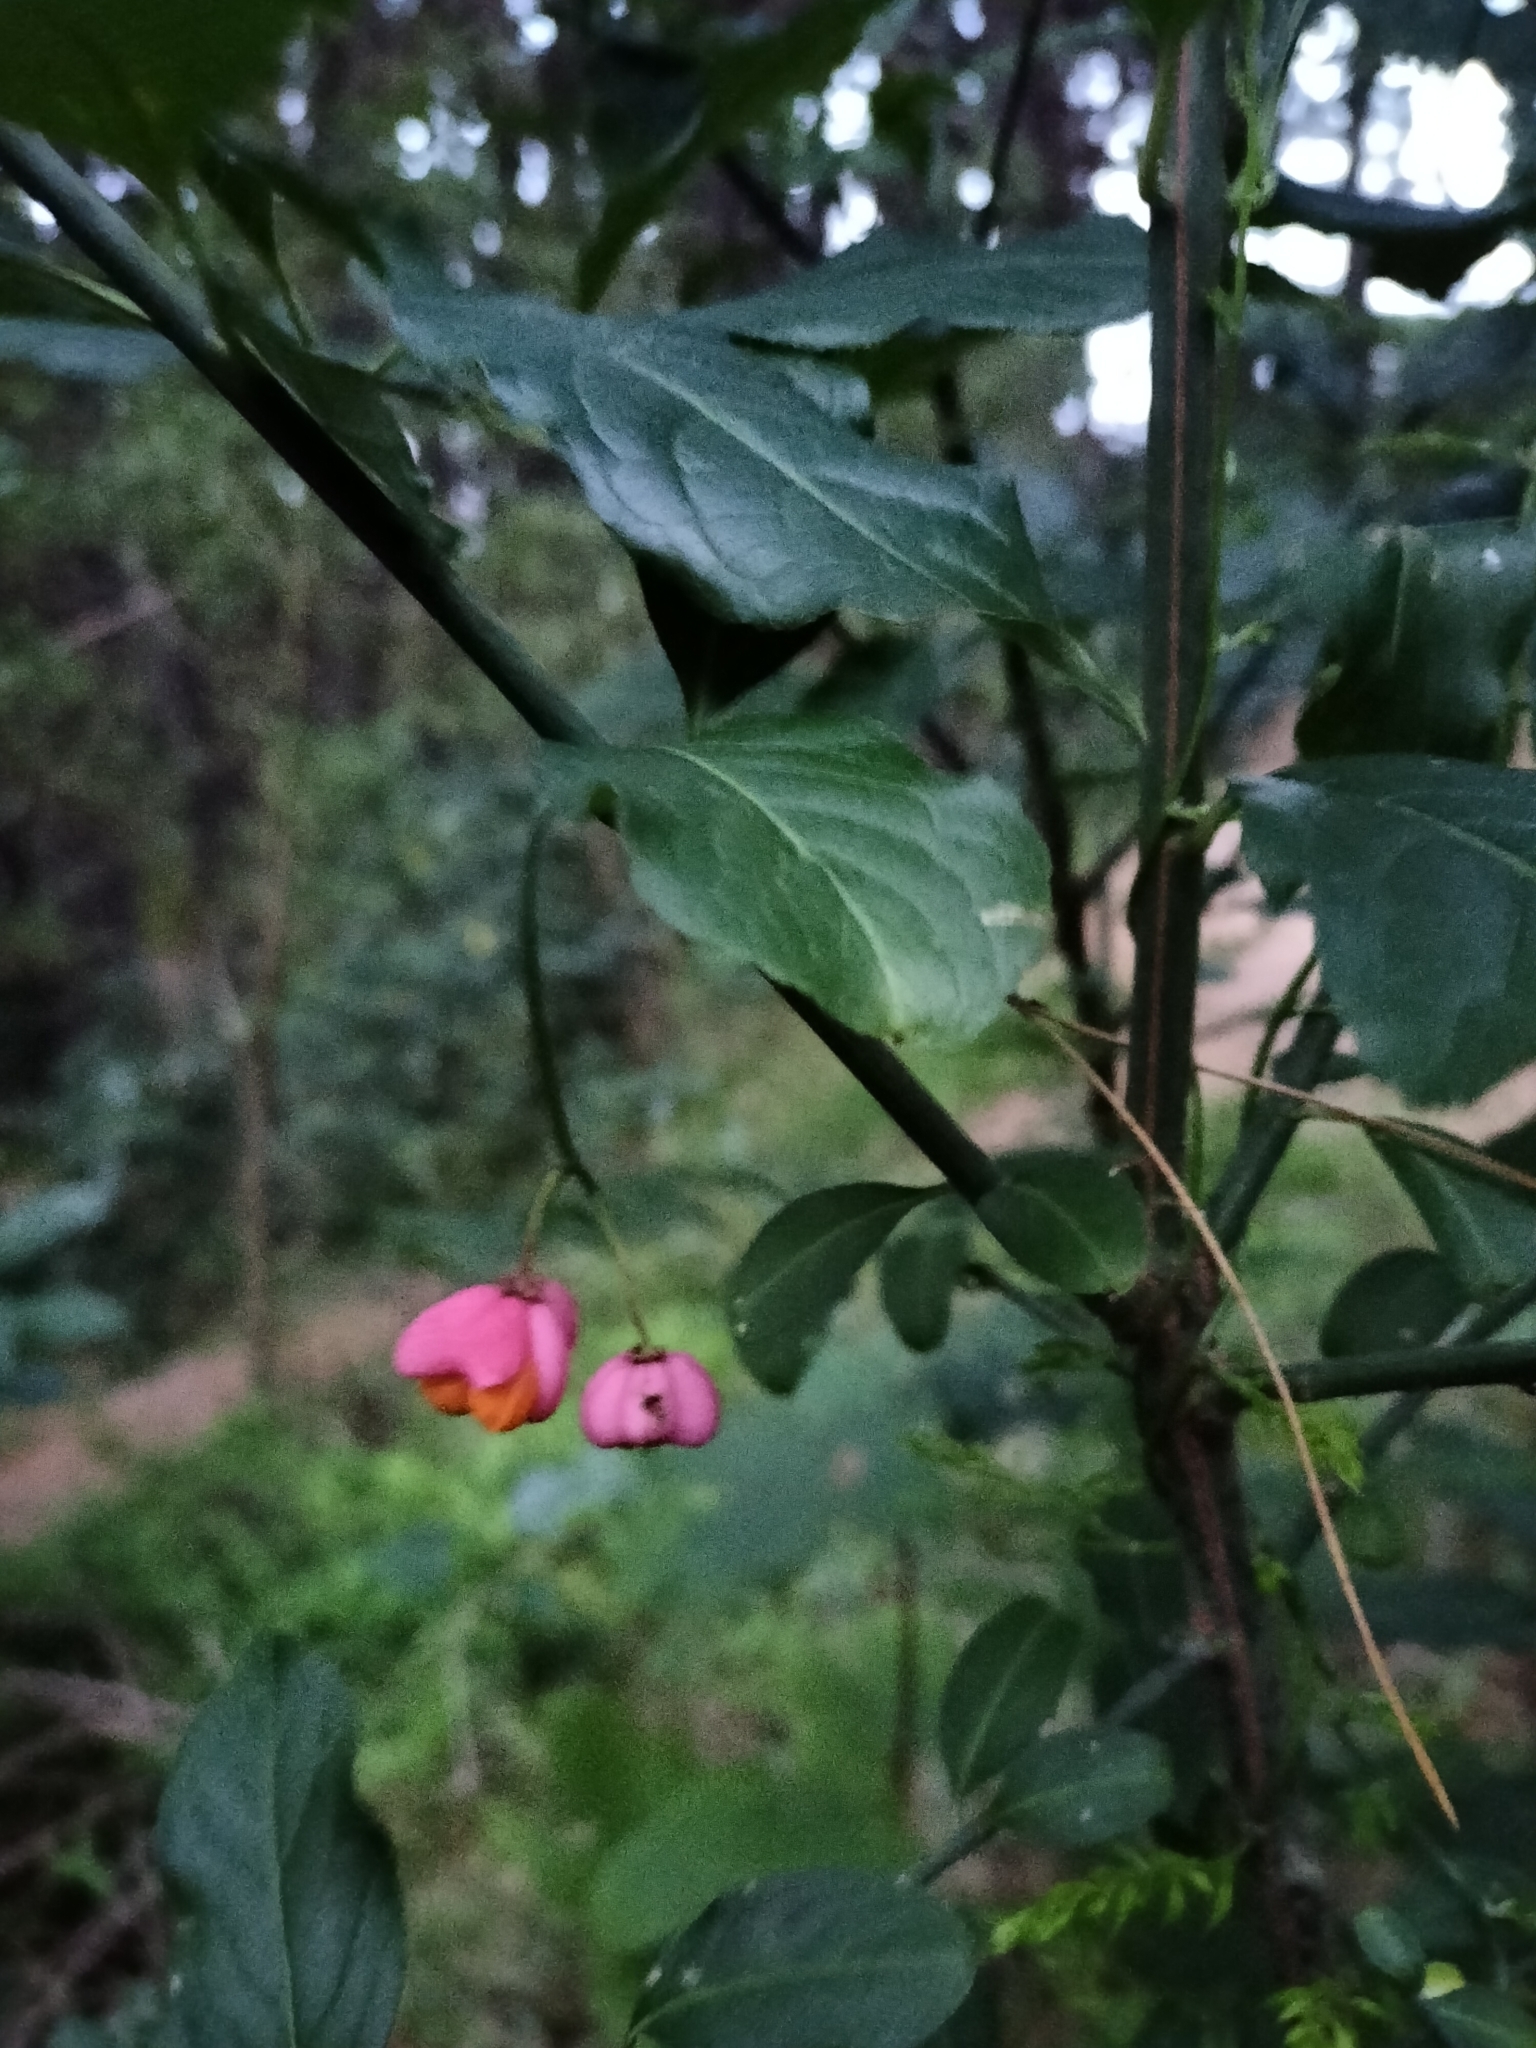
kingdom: Plantae
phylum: Tracheophyta
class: Magnoliopsida
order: Celastrales
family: Celastraceae
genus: Euonymus
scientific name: Euonymus europaeus
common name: Spindle
